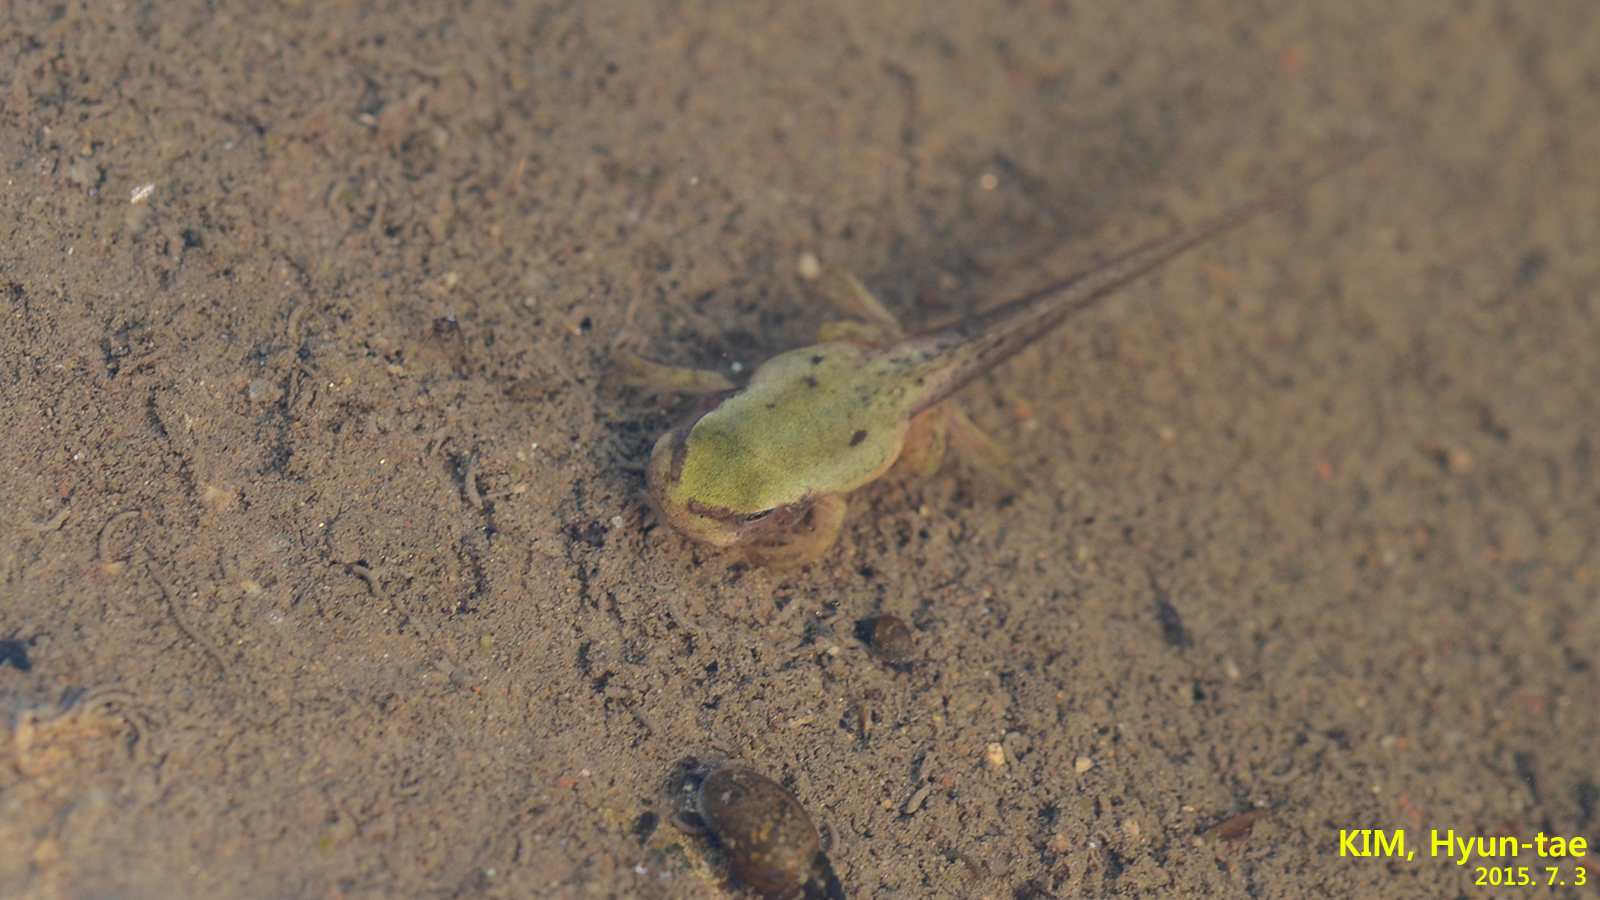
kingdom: Animalia
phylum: Chordata
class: Amphibia
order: Anura
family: Hylidae
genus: Dryophytes
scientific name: Dryophytes immaculatus
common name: North china treefrog
